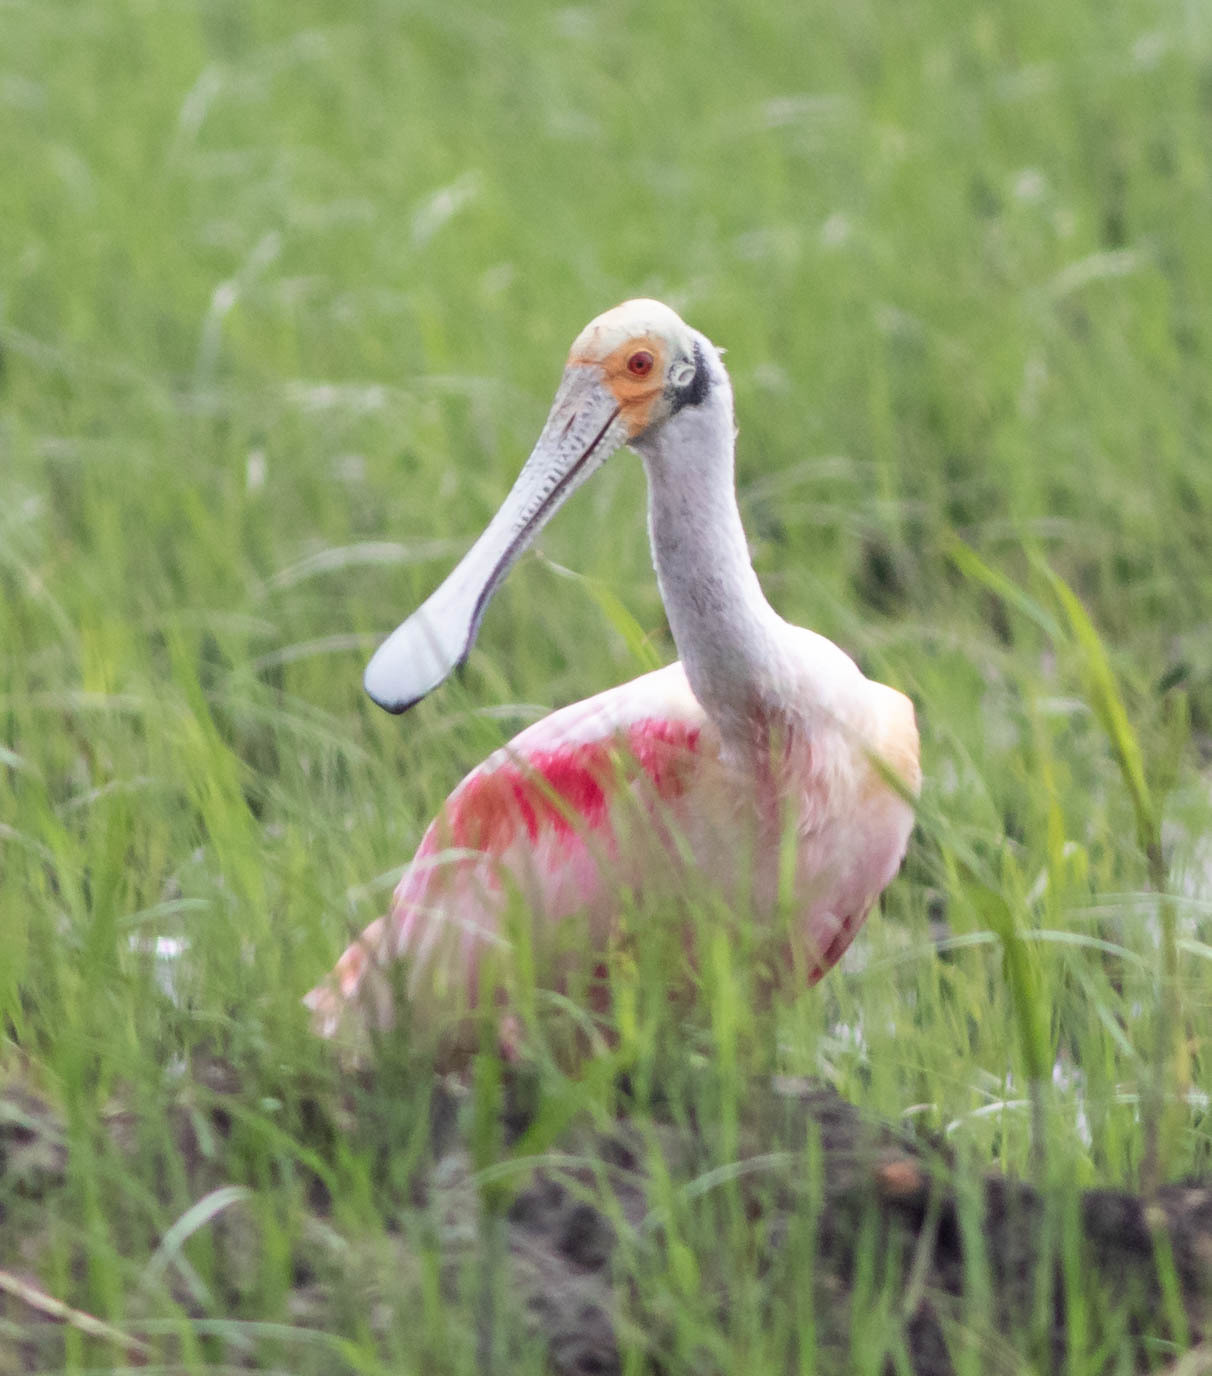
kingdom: Animalia
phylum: Chordata
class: Aves
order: Pelecaniformes
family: Threskiornithidae
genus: Platalea
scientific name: Platalea ajaja
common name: Roseate spoonbill
